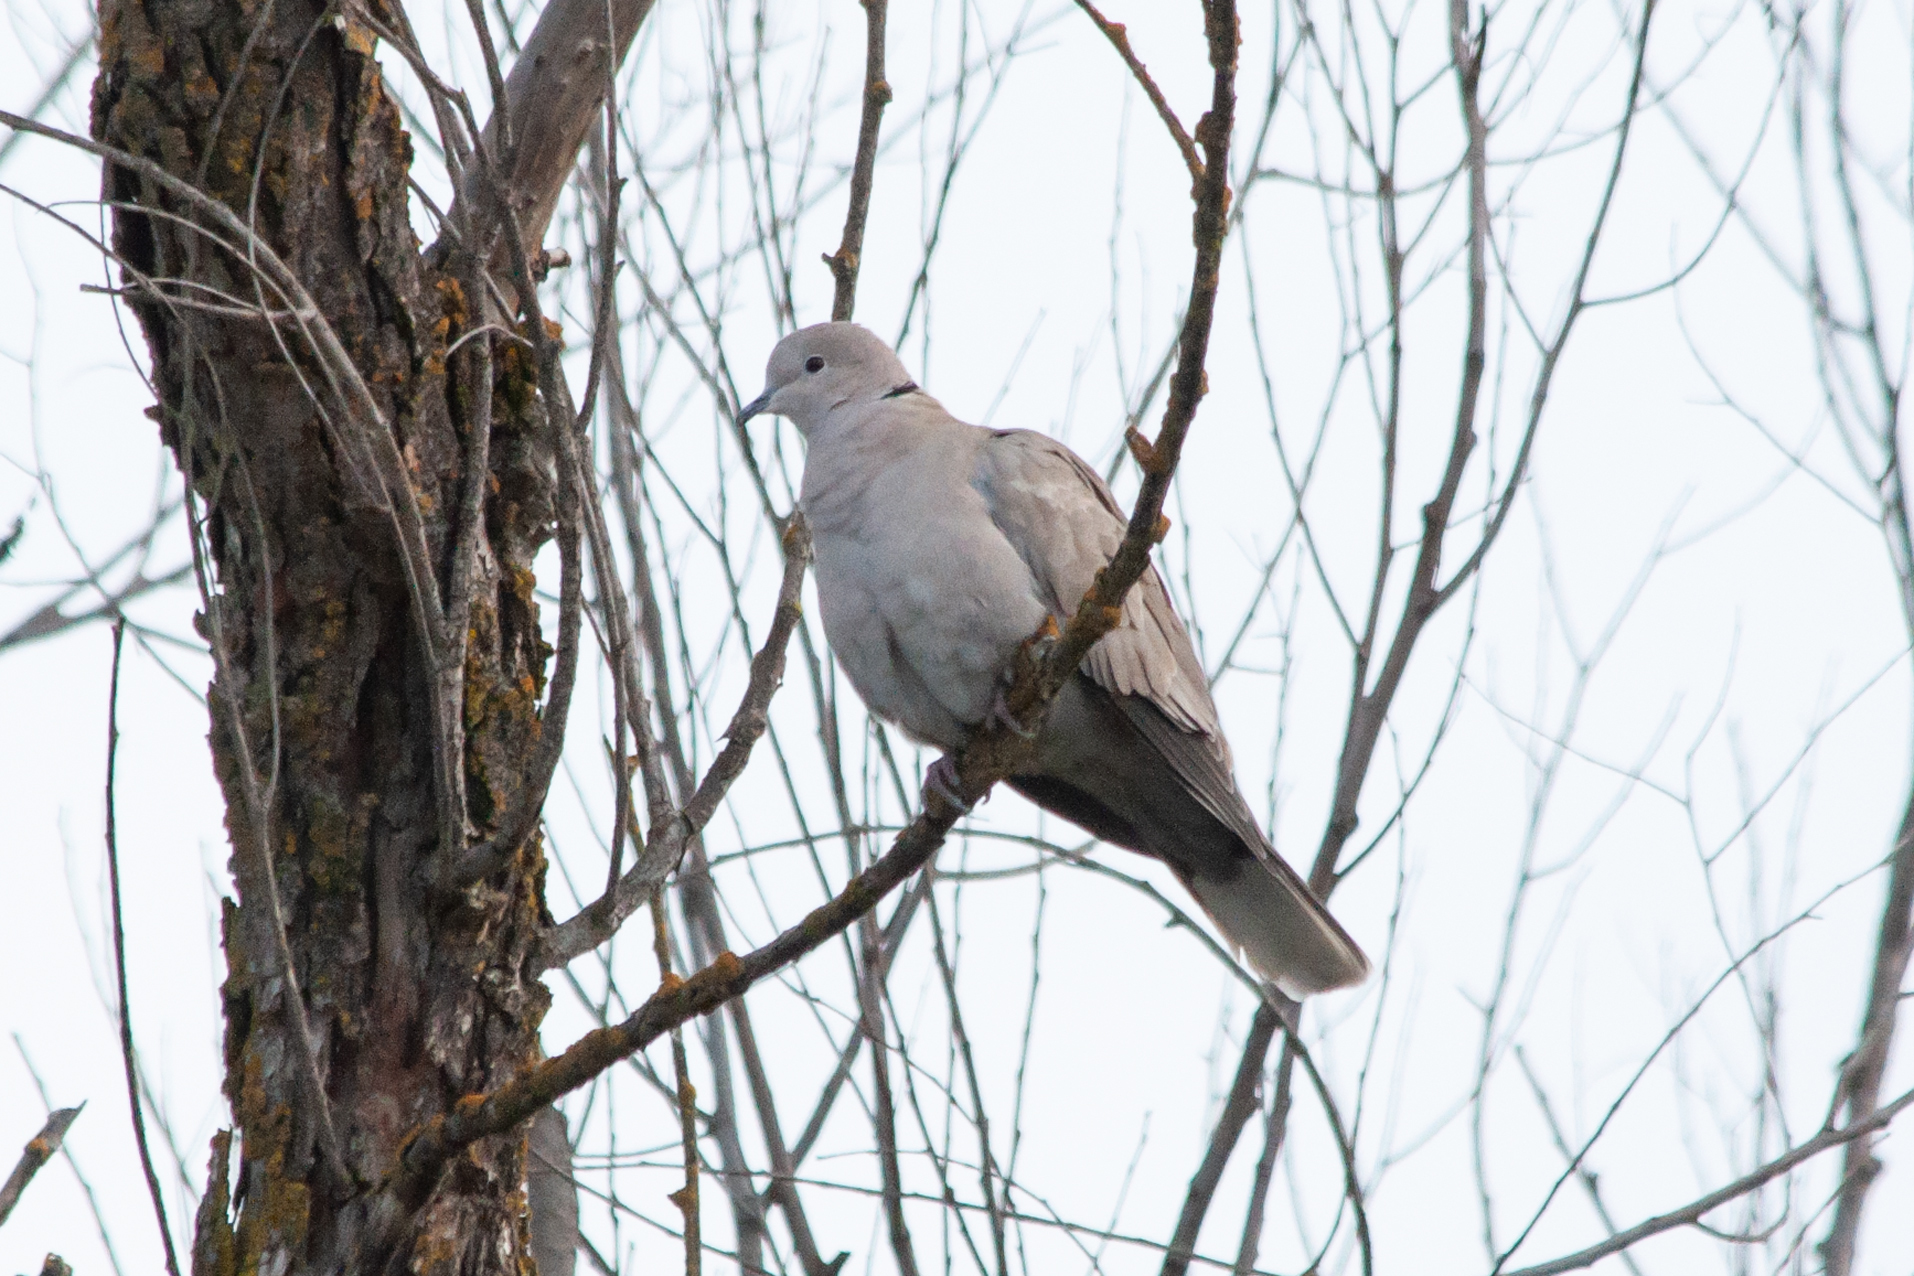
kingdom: Animalia
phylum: Chordata
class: Aves
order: Columbiformes
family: Columbidae
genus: Streptopelia
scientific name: Streptopelia decaocto
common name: Eurasian collared dove
